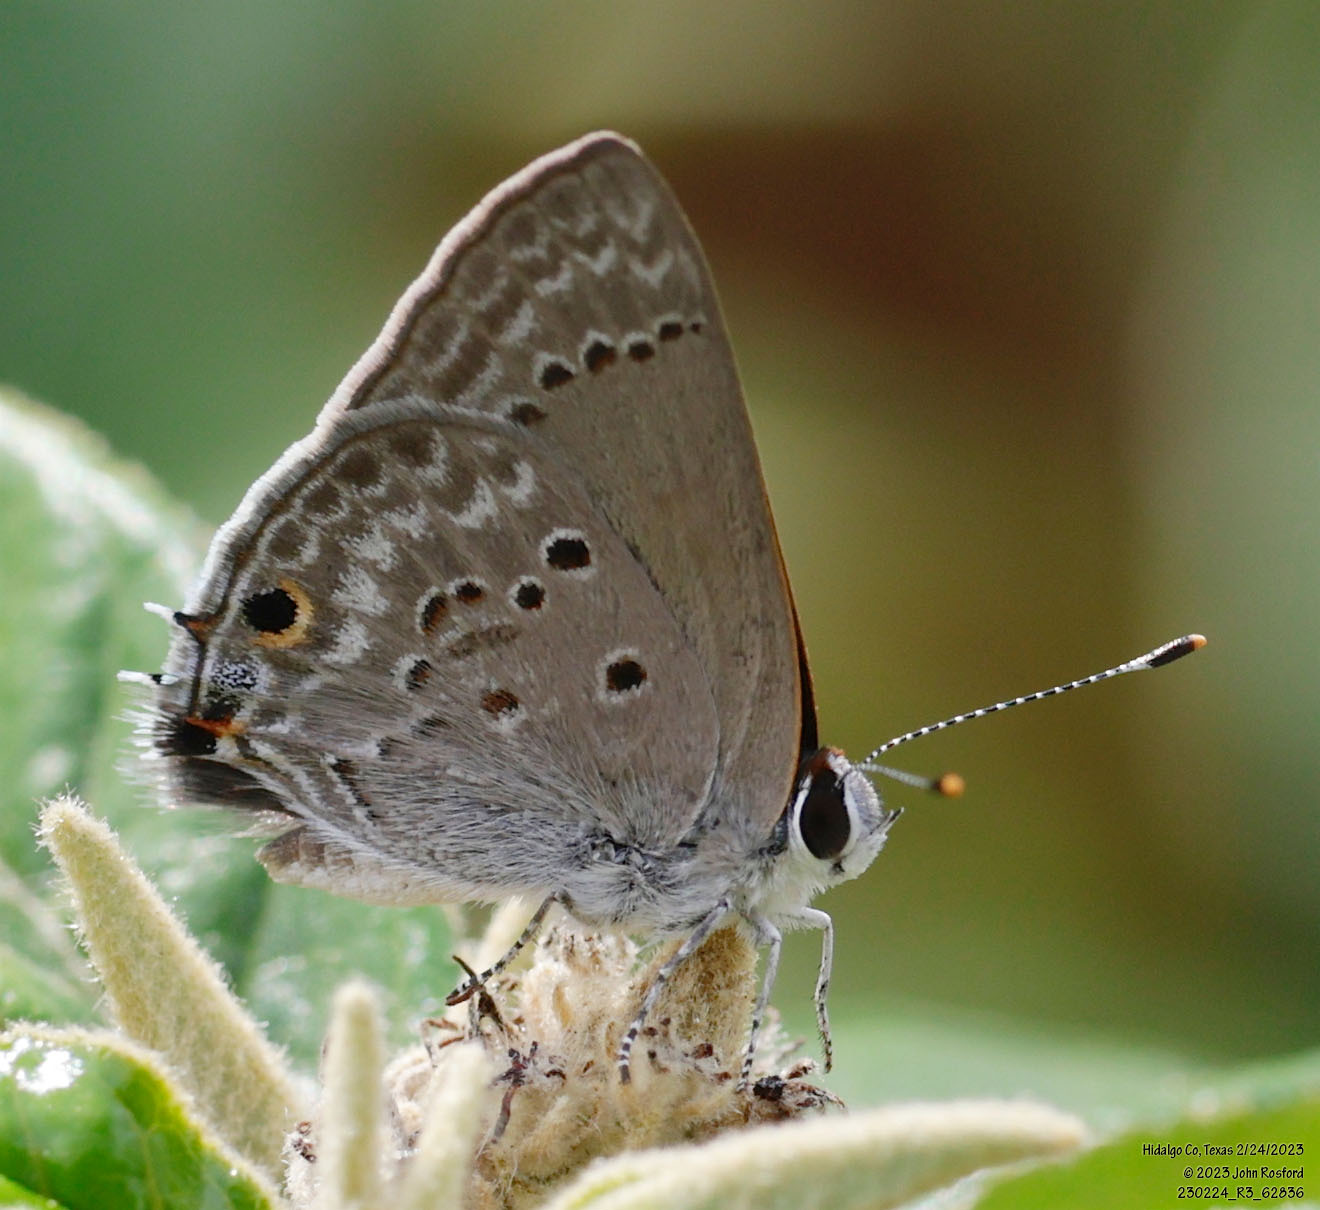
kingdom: Animalia
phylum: Arthropoda
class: Insecta
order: Lepidoptera
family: Lycaenidae
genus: Callicista
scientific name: Callicista columella
